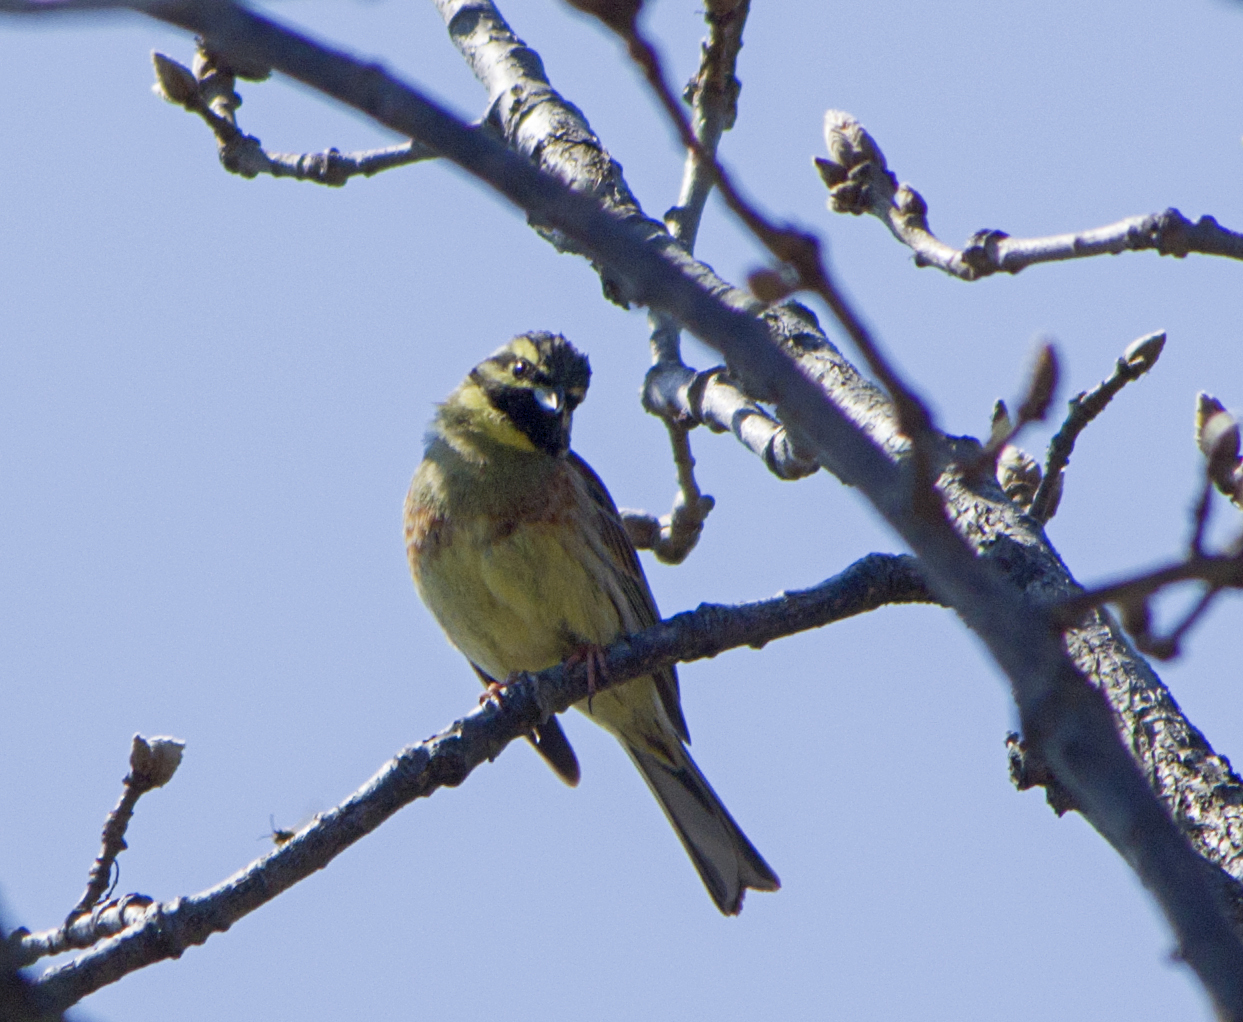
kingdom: Animalia
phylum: Chordata
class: Aves
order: Passeriformes
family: Emberizidae
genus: Emberiza
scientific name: Emberiza cirlus
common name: Cirl bunting
